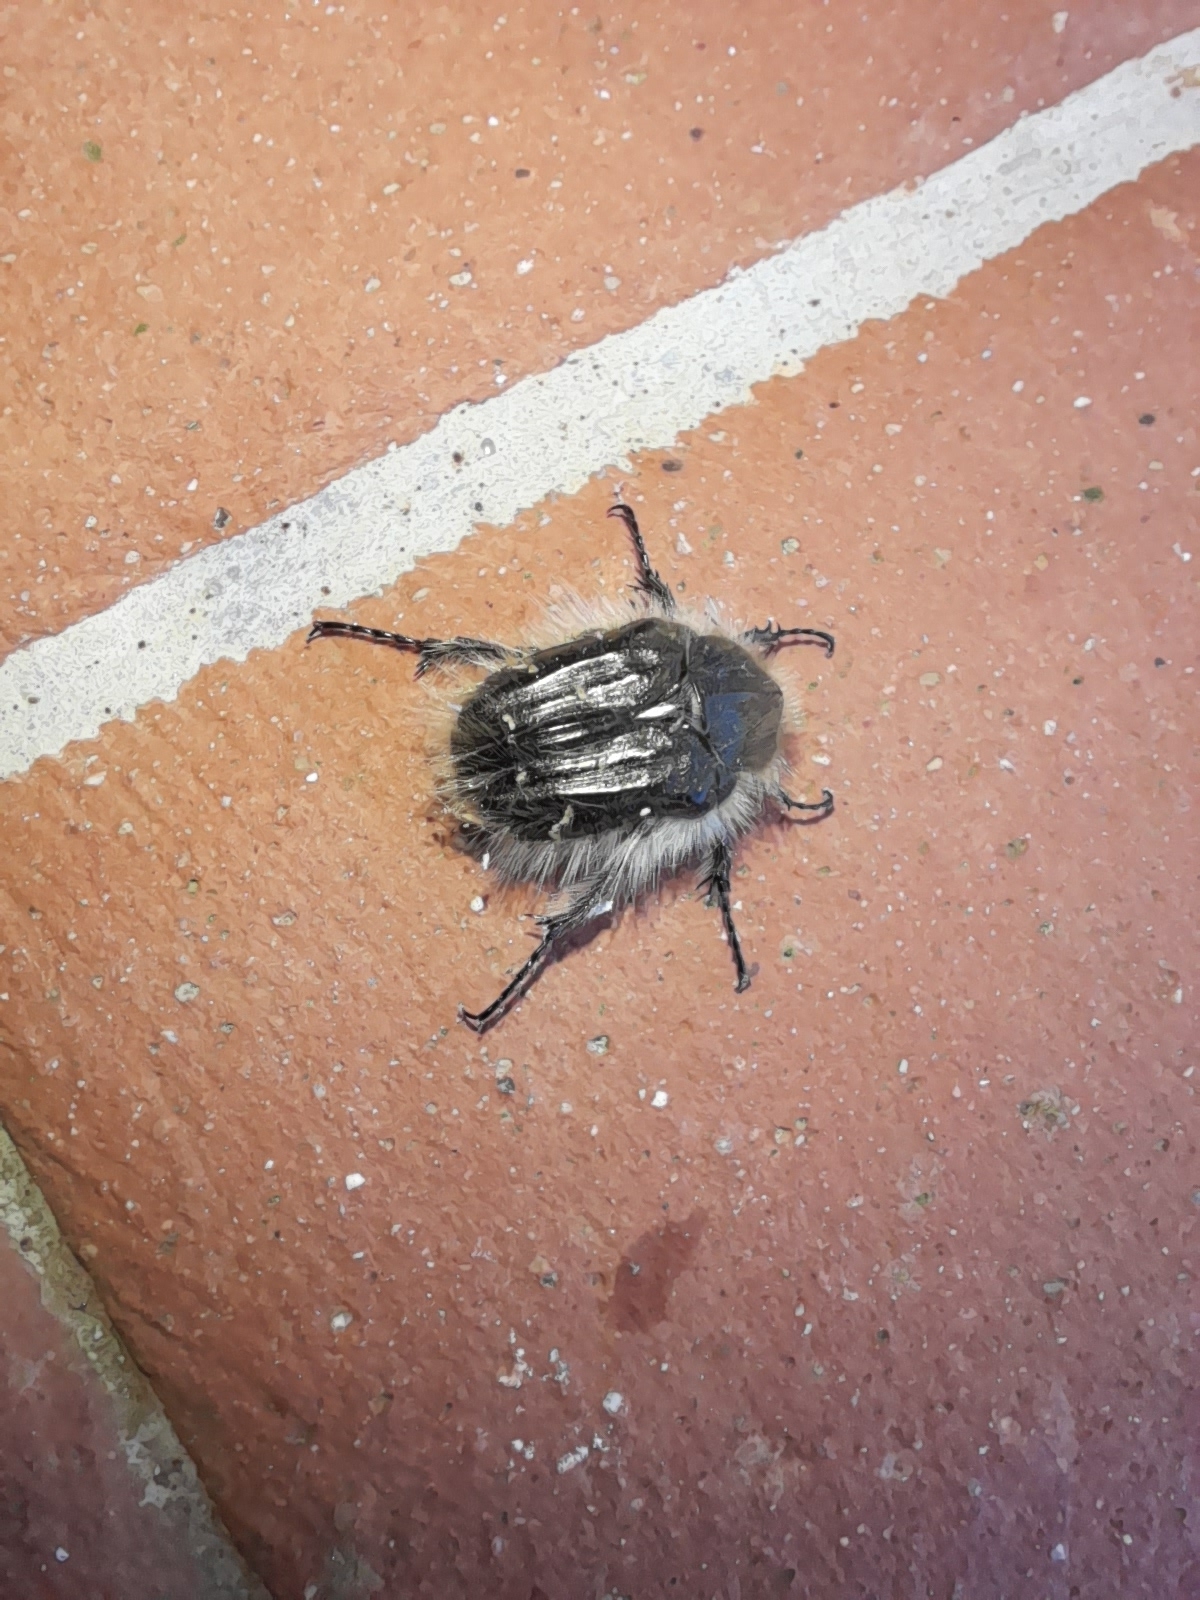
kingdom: Animalia
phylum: Arthropoda
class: Insecta
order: Coleoptera
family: Scarabaeidae
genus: Tropinota
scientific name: Tropinota squalida
